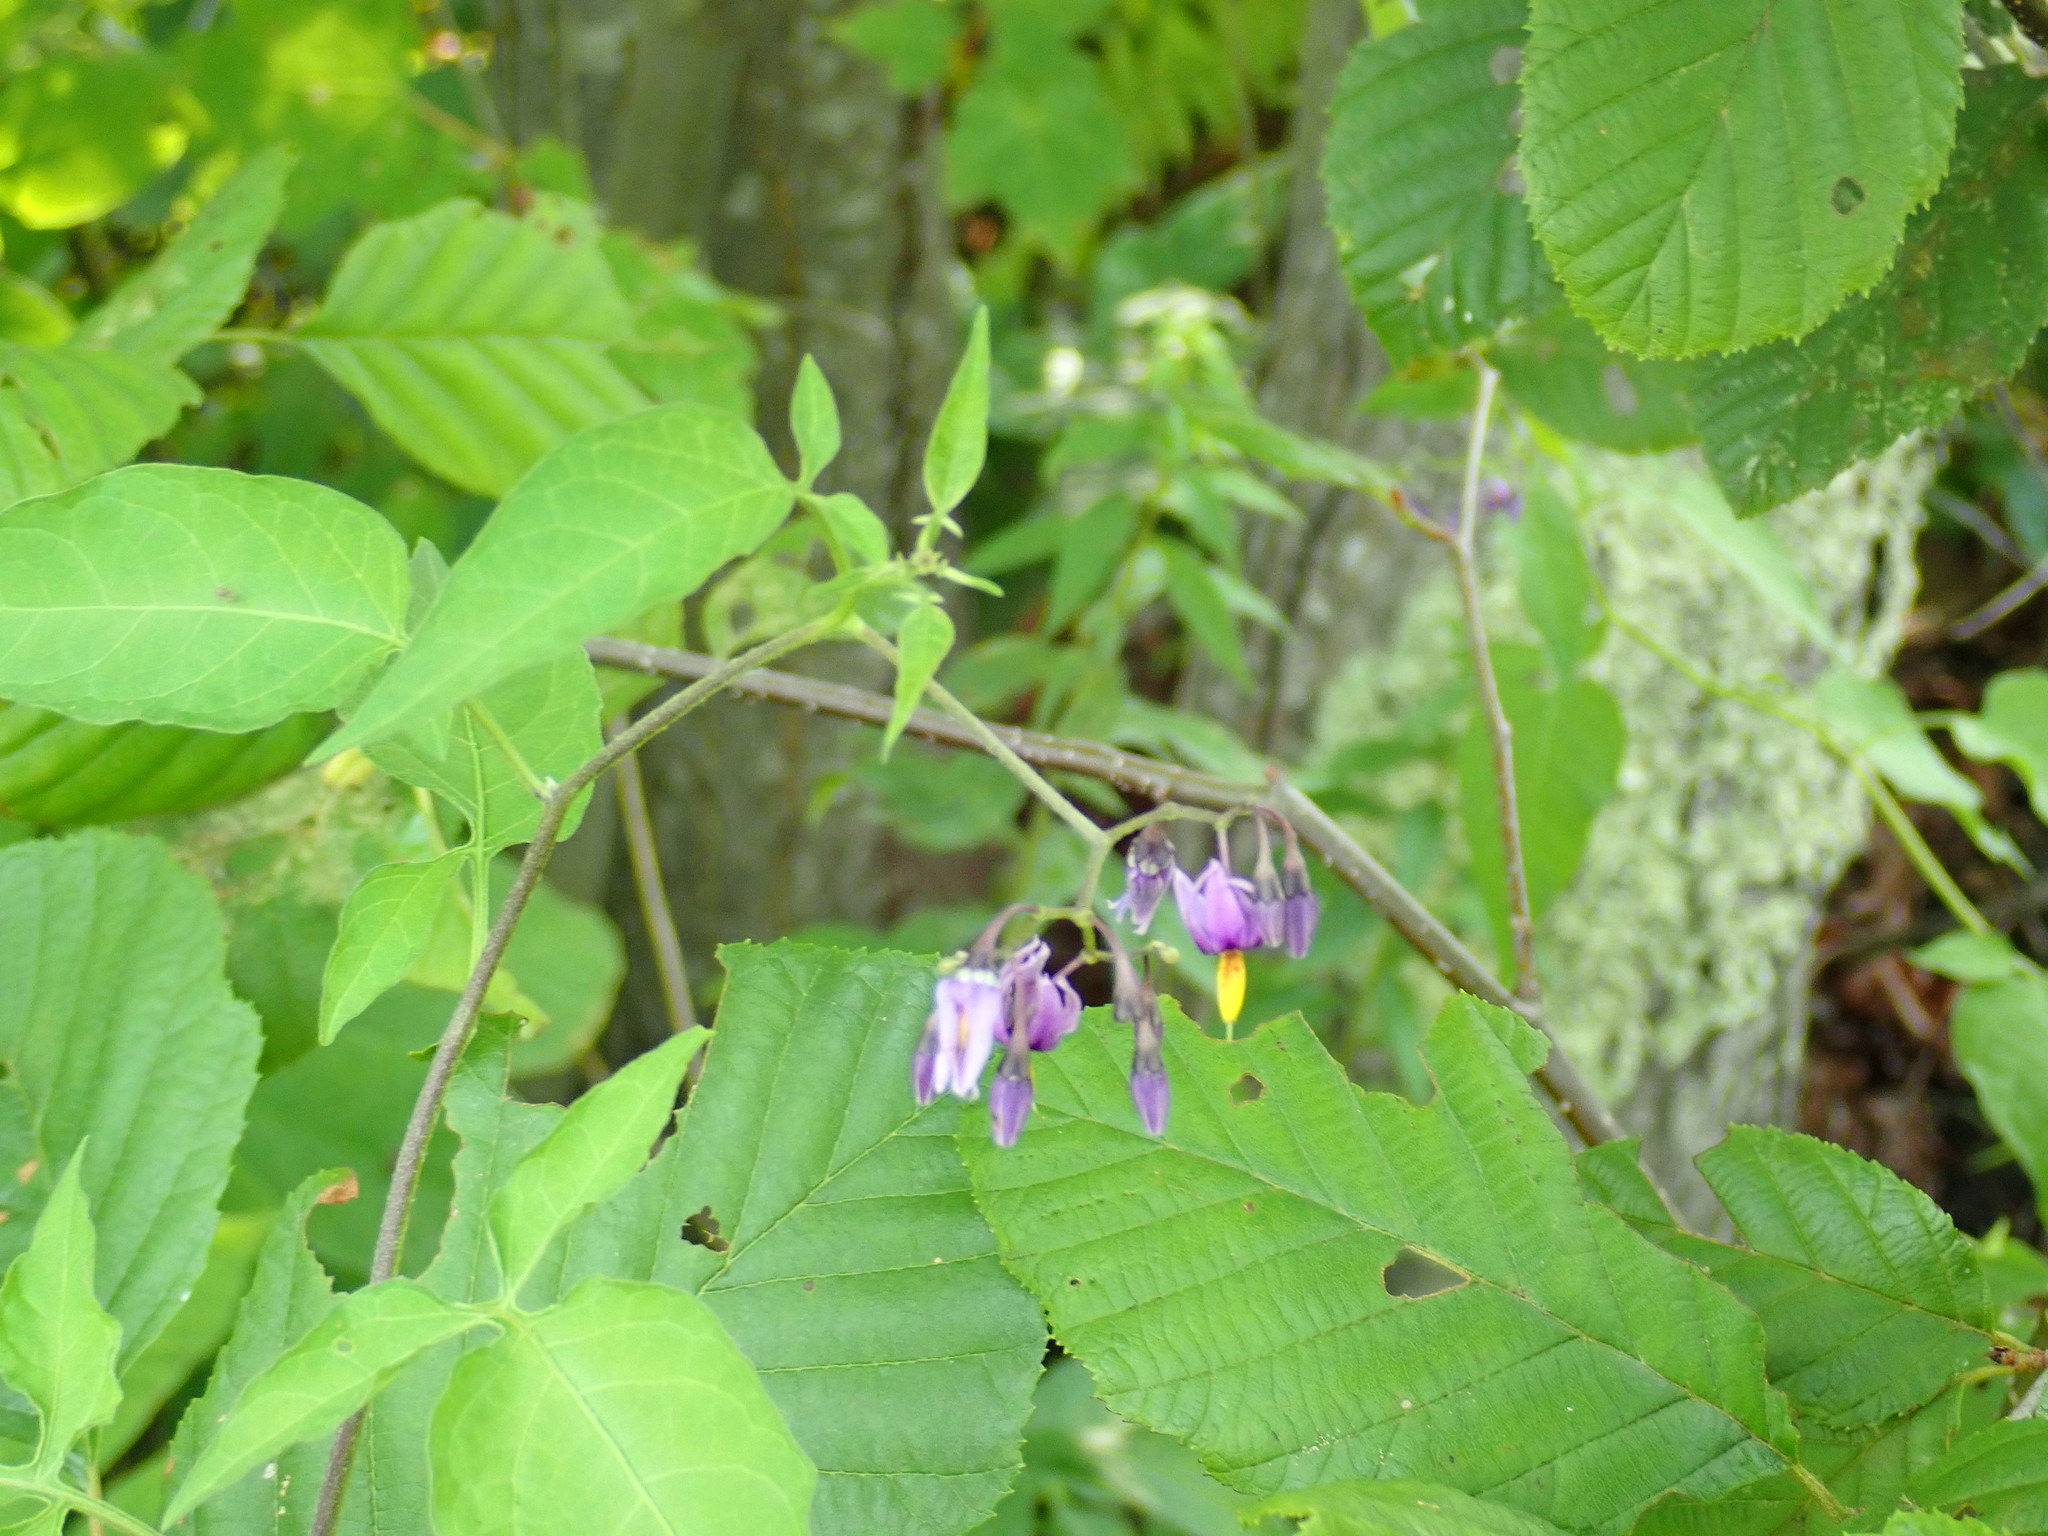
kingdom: Plantae
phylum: Tracheophyta
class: Magnoliopsida
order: Solanales
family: Solanaceae
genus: Solanum
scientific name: Solanum dulcamara
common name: Climbing nightshade
